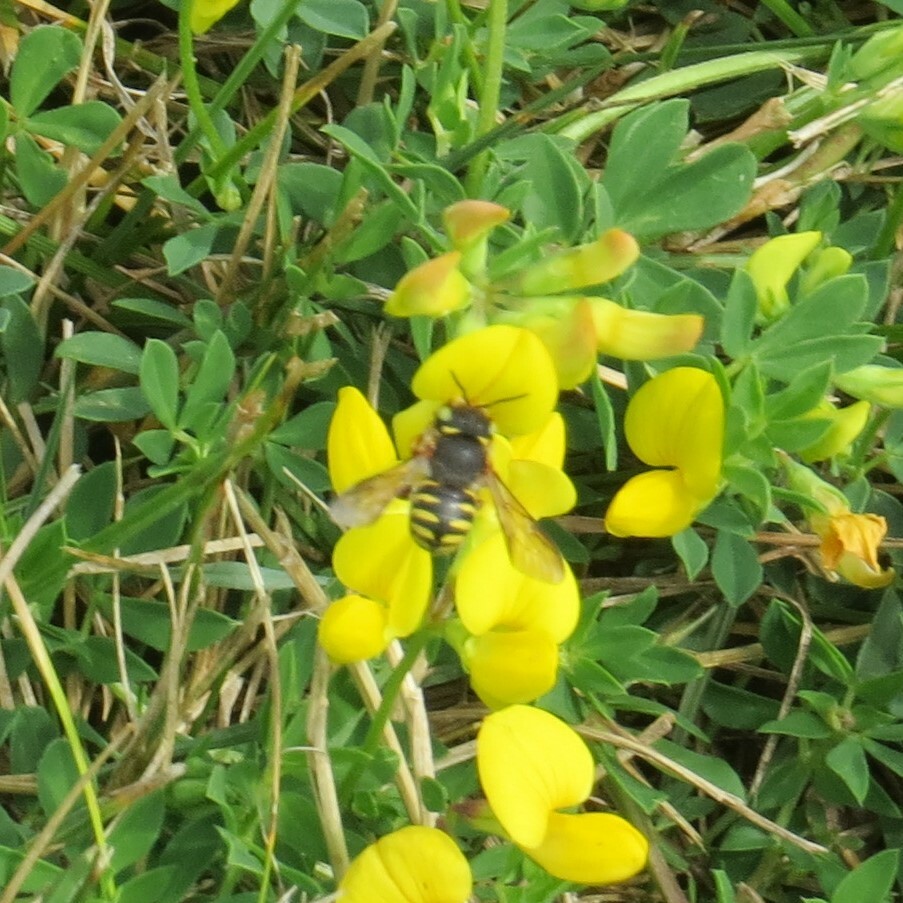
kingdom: Animalia
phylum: Arthropoda
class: Insecta
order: Hymenoptera
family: Megachilidae
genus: Anthidium
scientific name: Anthidium oblongatum
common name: Oblong wool carder bee
